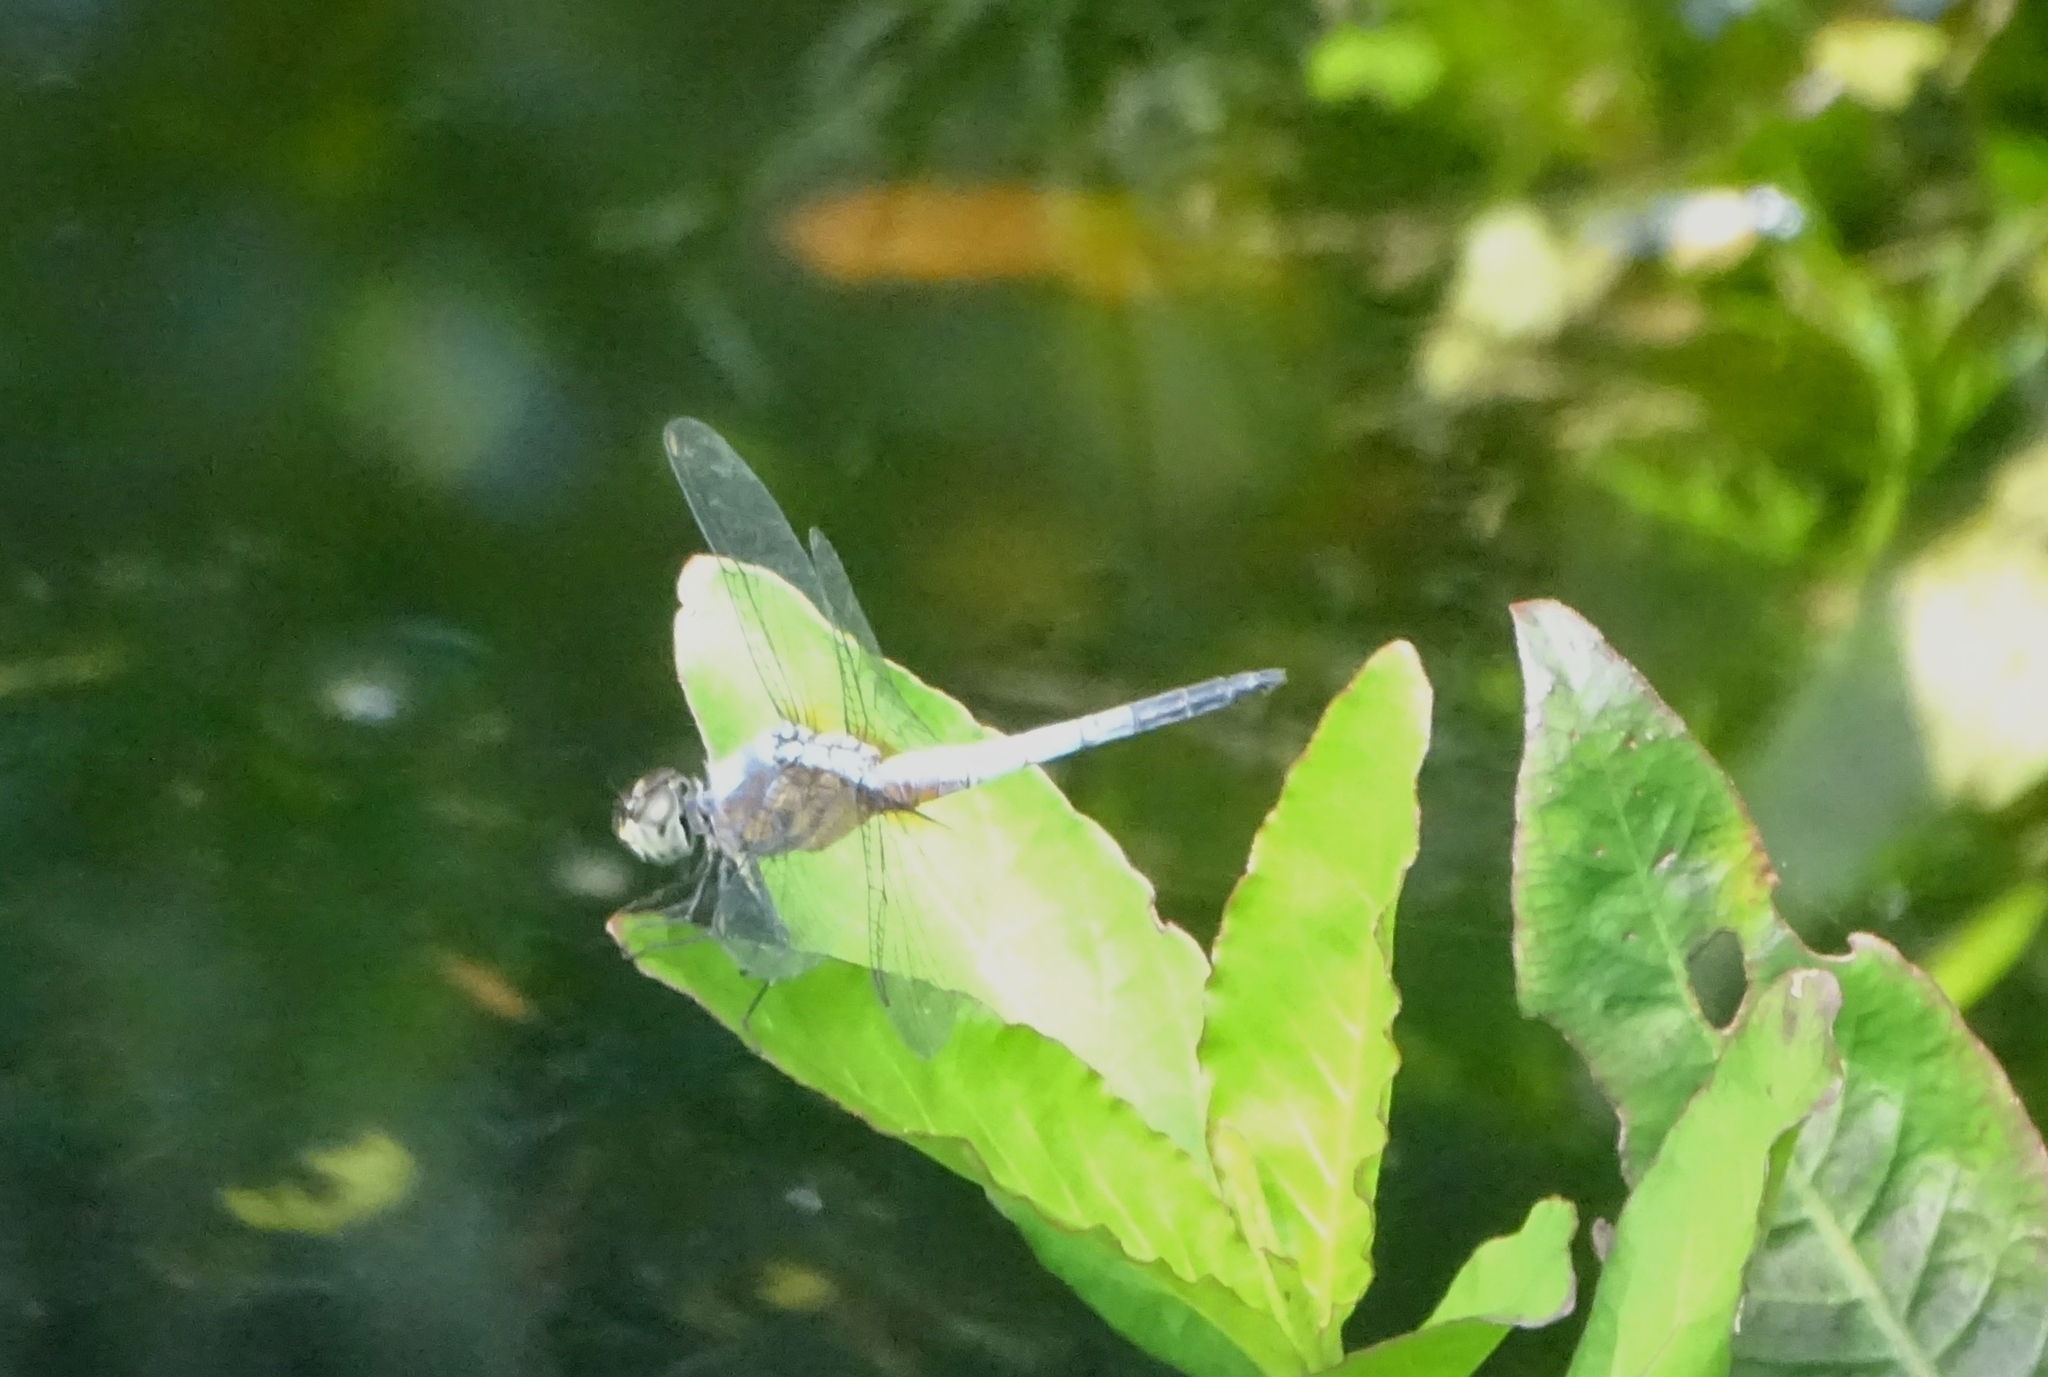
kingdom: Animalia
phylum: Arthropoda
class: Insecta
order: Odonata
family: Libellulidae
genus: Brachydiplax
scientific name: Brachydiplax chalybea
